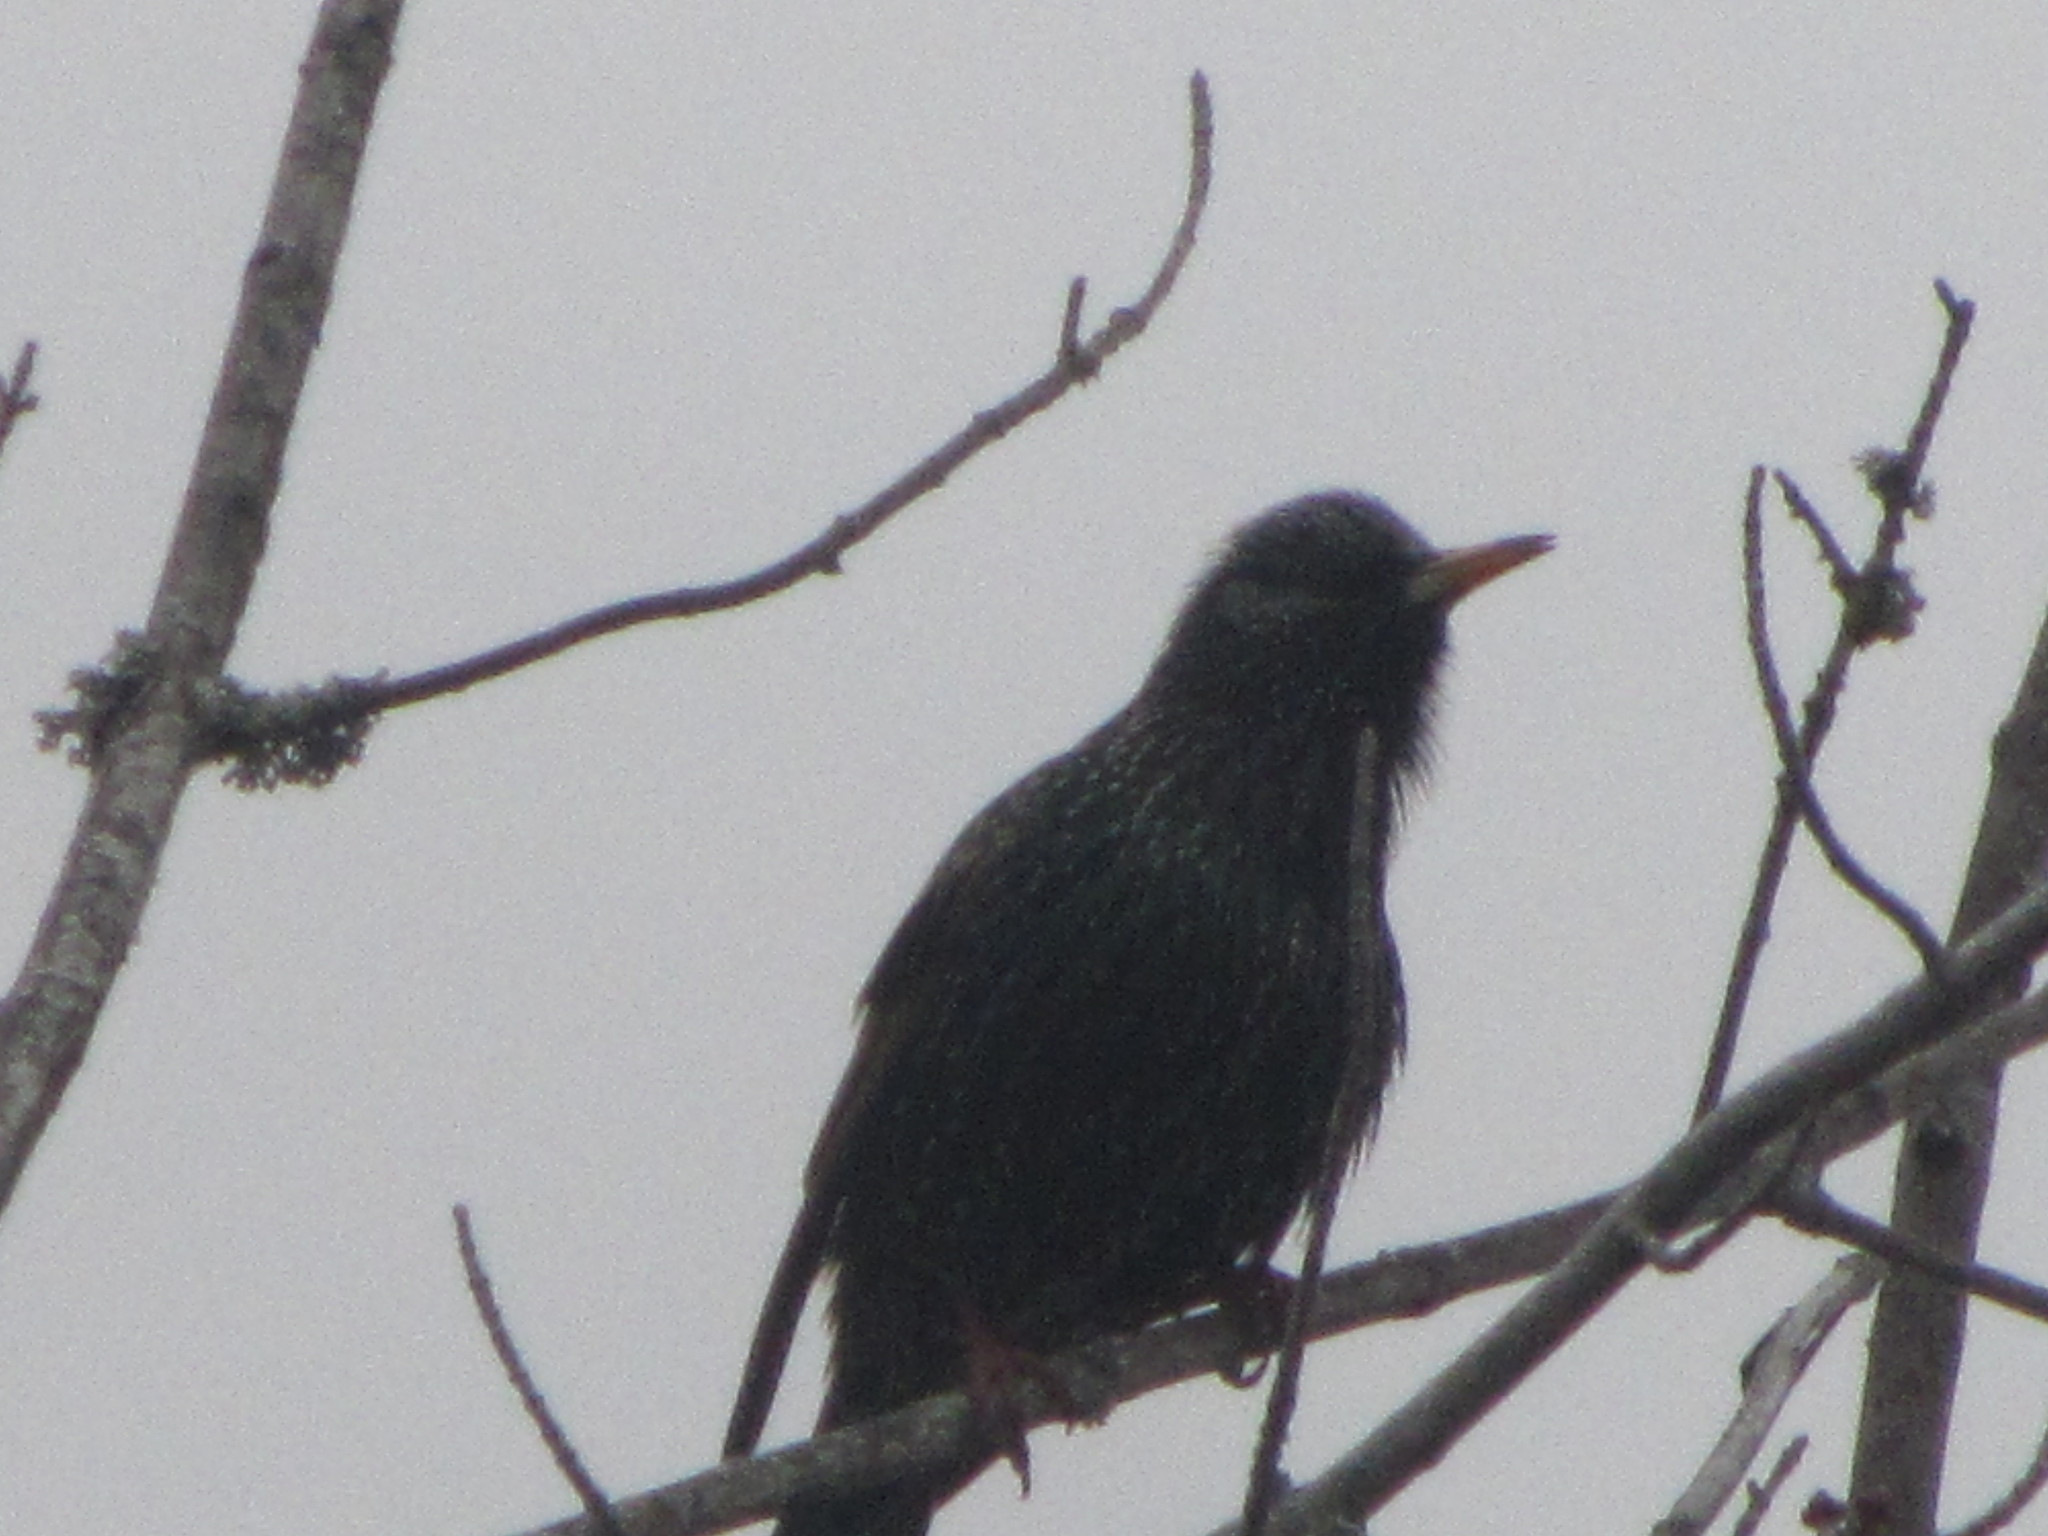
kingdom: Animalia
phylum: Chordata
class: Aves
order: Passeriformes
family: Sturnidae
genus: Sturnus
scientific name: Sturnus vulgaris
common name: Common starling
